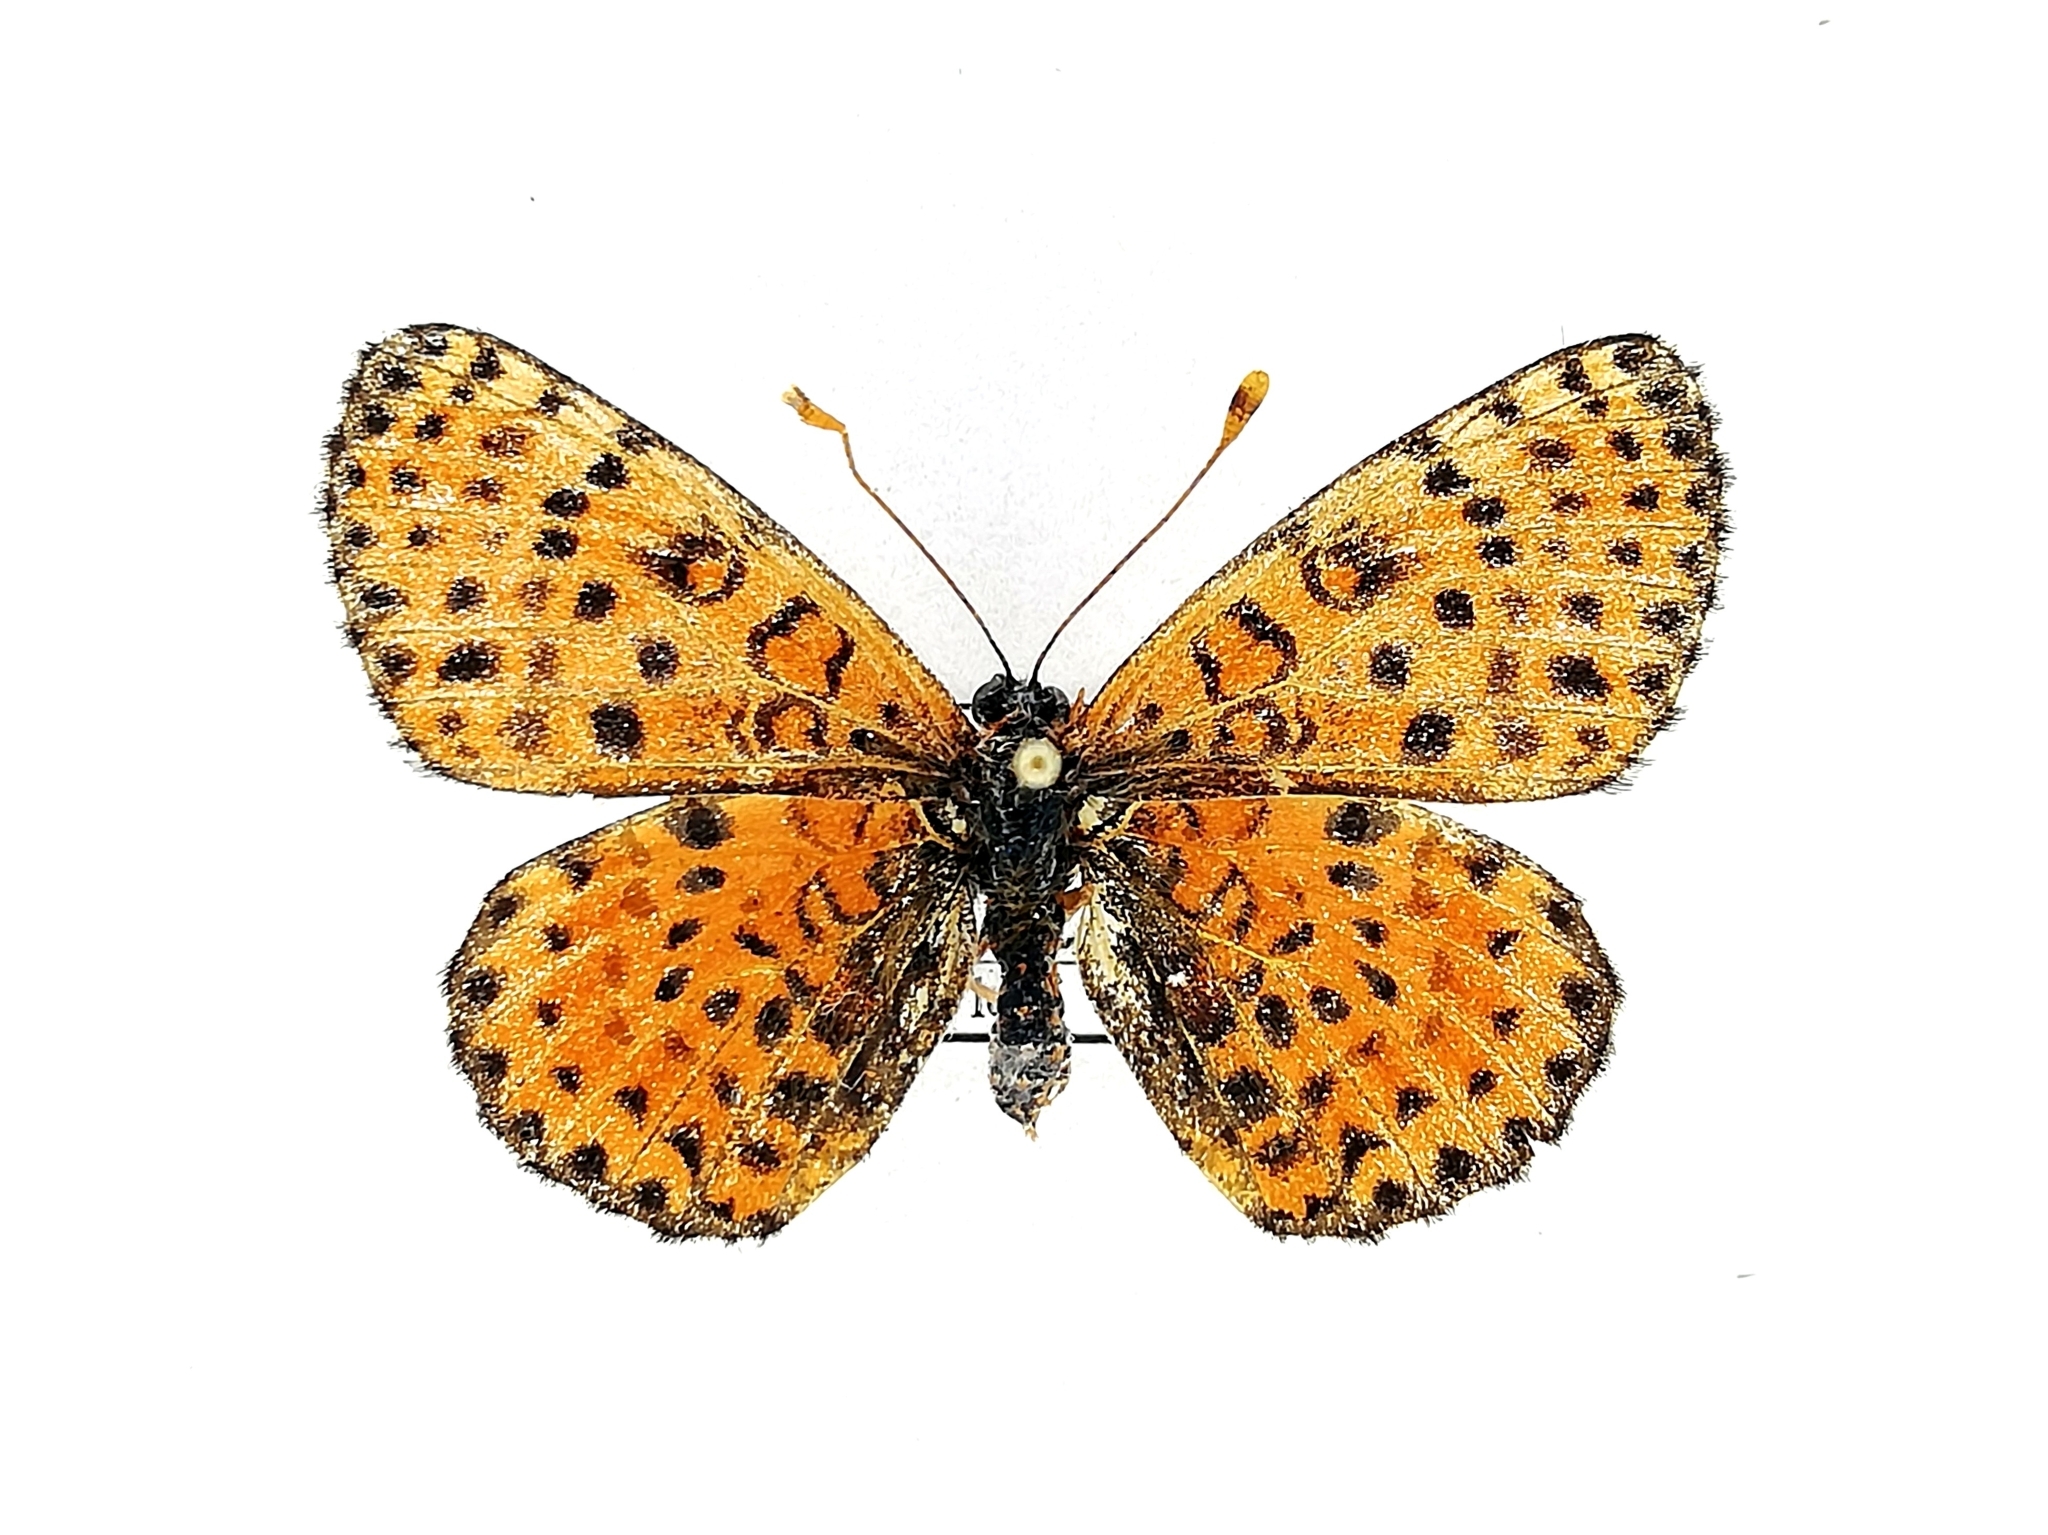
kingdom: Animalia
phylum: Arthropoda
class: Insecta
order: Lepidoptera
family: Nymphalidae
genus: Melitaea
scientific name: Melitaea didyma
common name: Spotted fritillary
